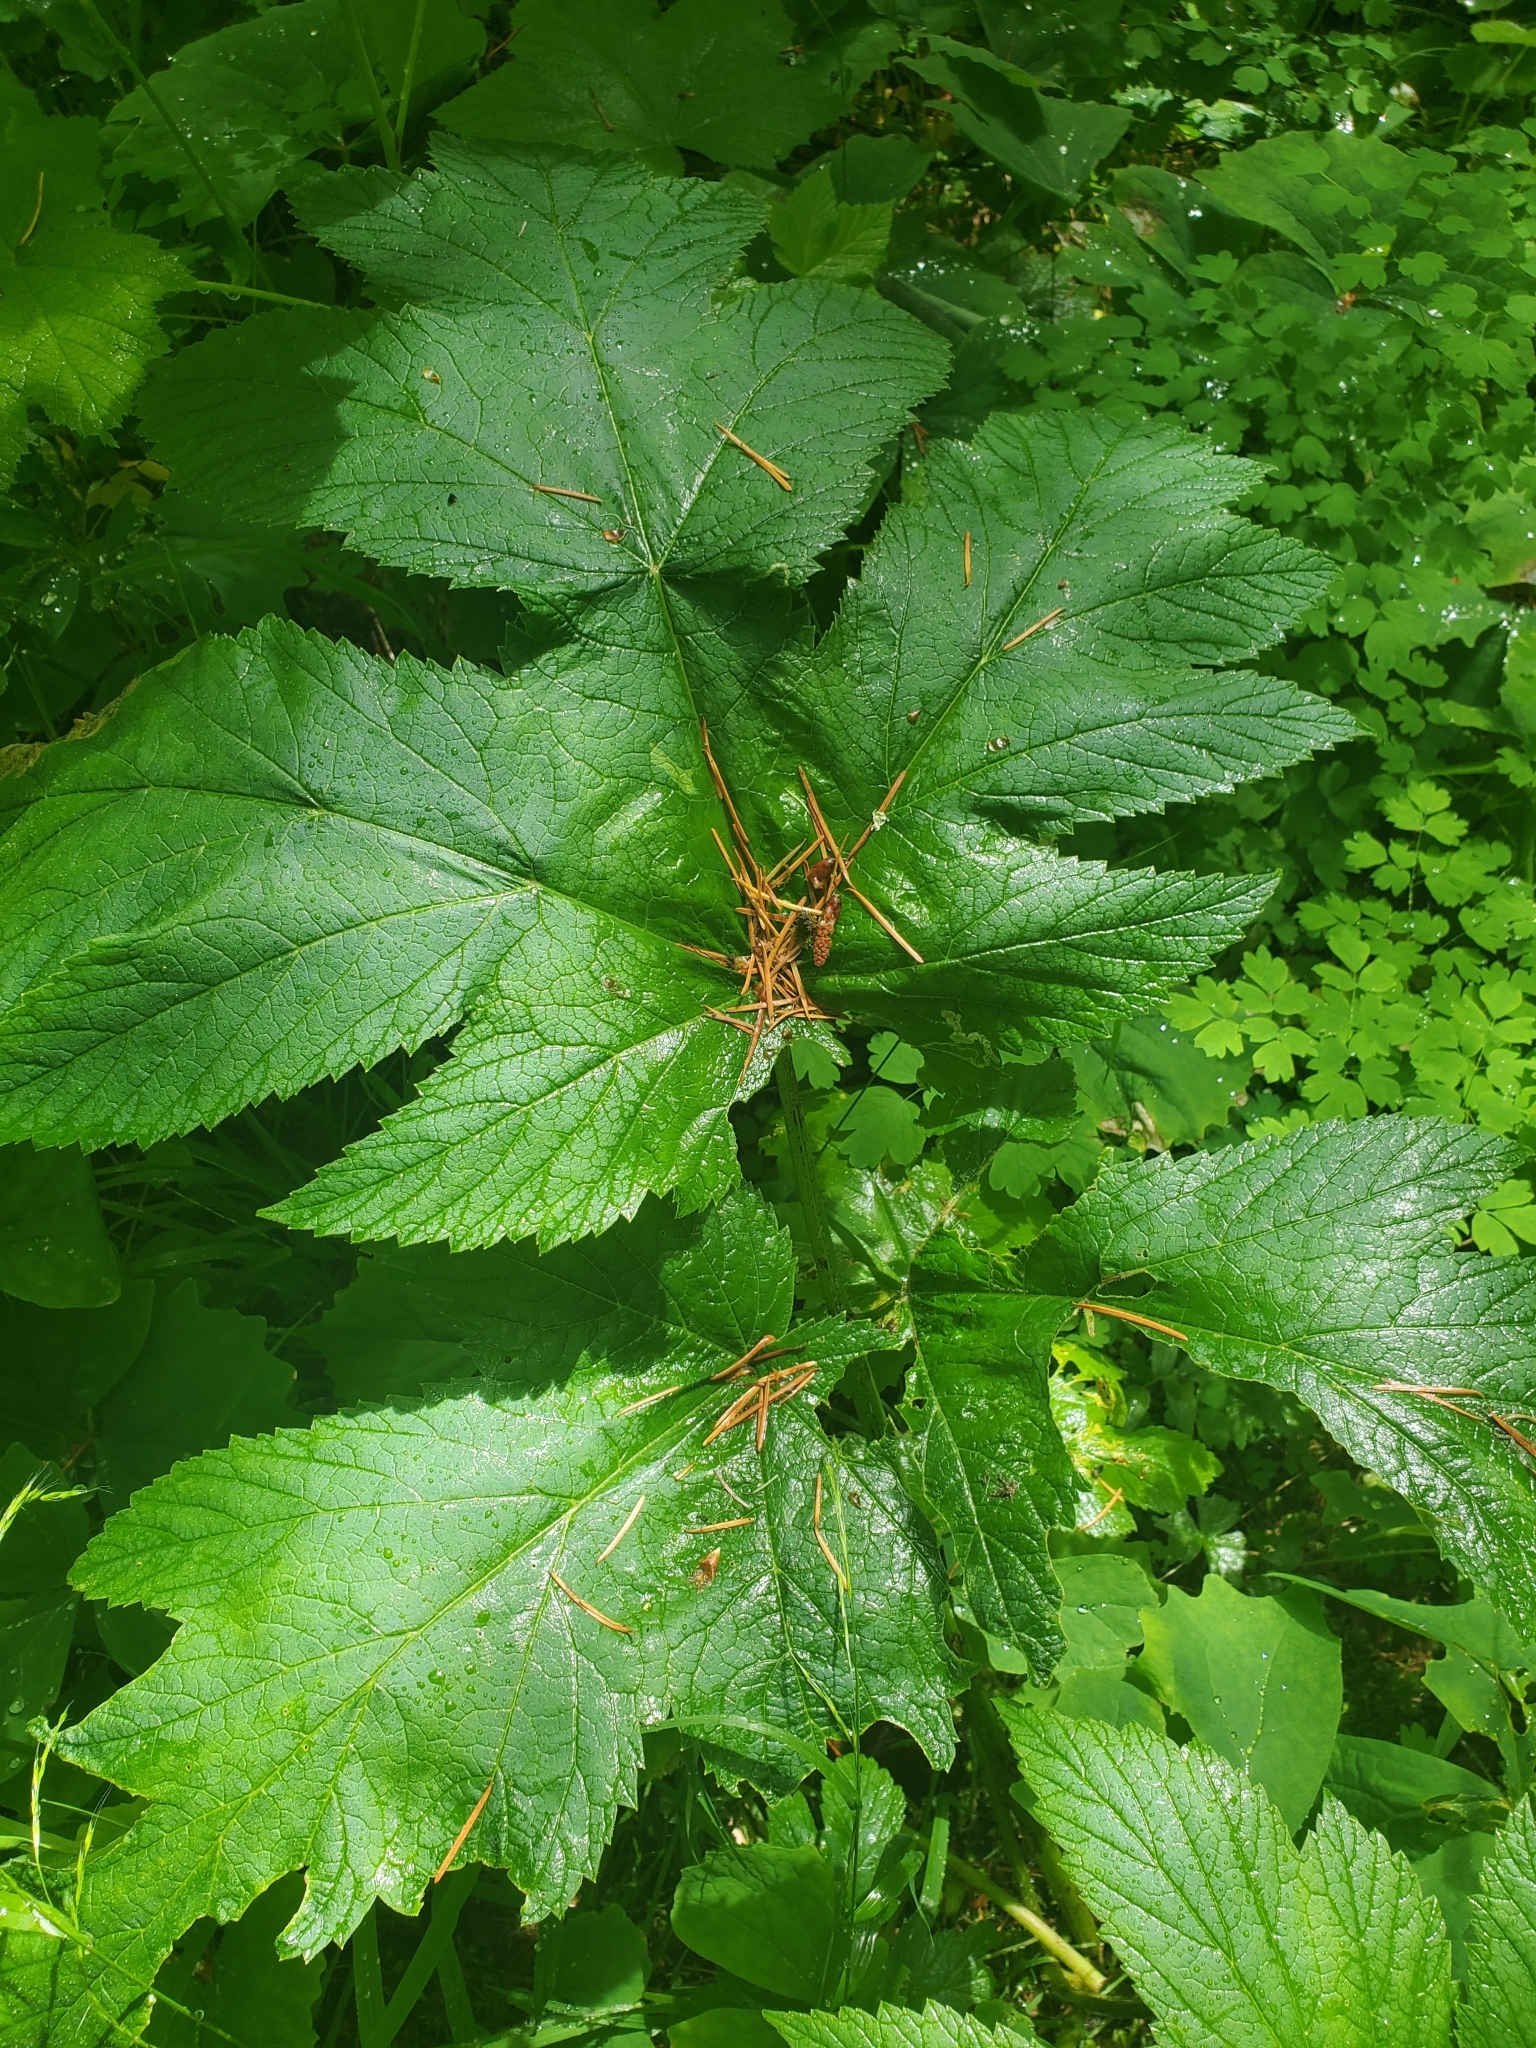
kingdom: Plantae
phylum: Tracheophyta
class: Magnoliopsida
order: Apiales
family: Apiaceae
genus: Heracleum
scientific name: Heracleum maximum
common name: American cow parsnip
